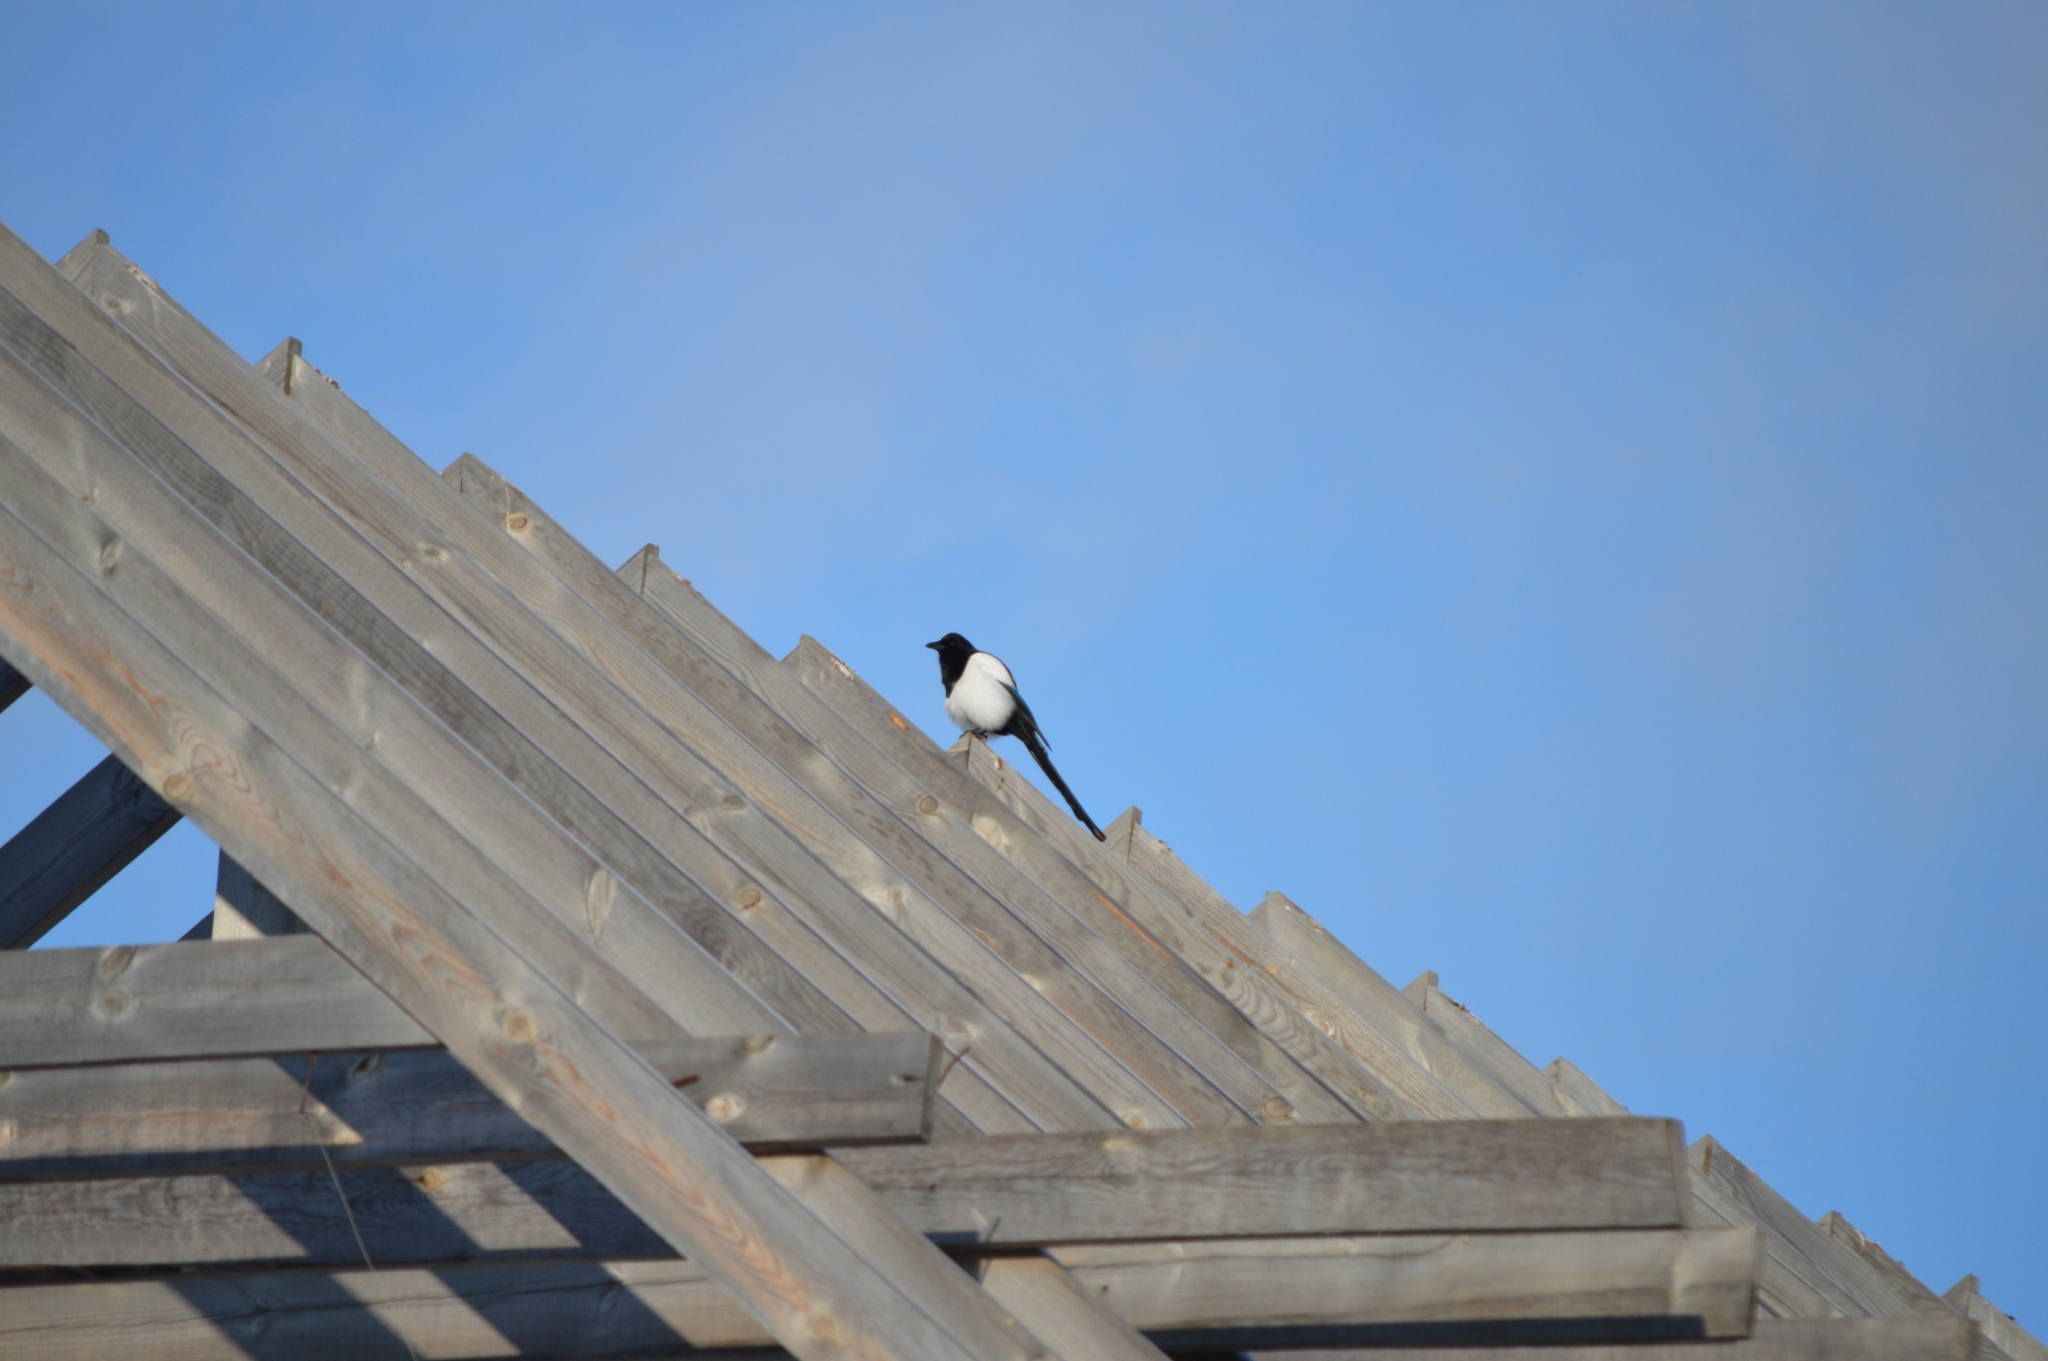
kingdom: Animalia
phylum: Chordata
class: Aves
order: Passeriformes
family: Corvidae
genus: Pica
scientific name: Pica pica
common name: Eurasian magpie
